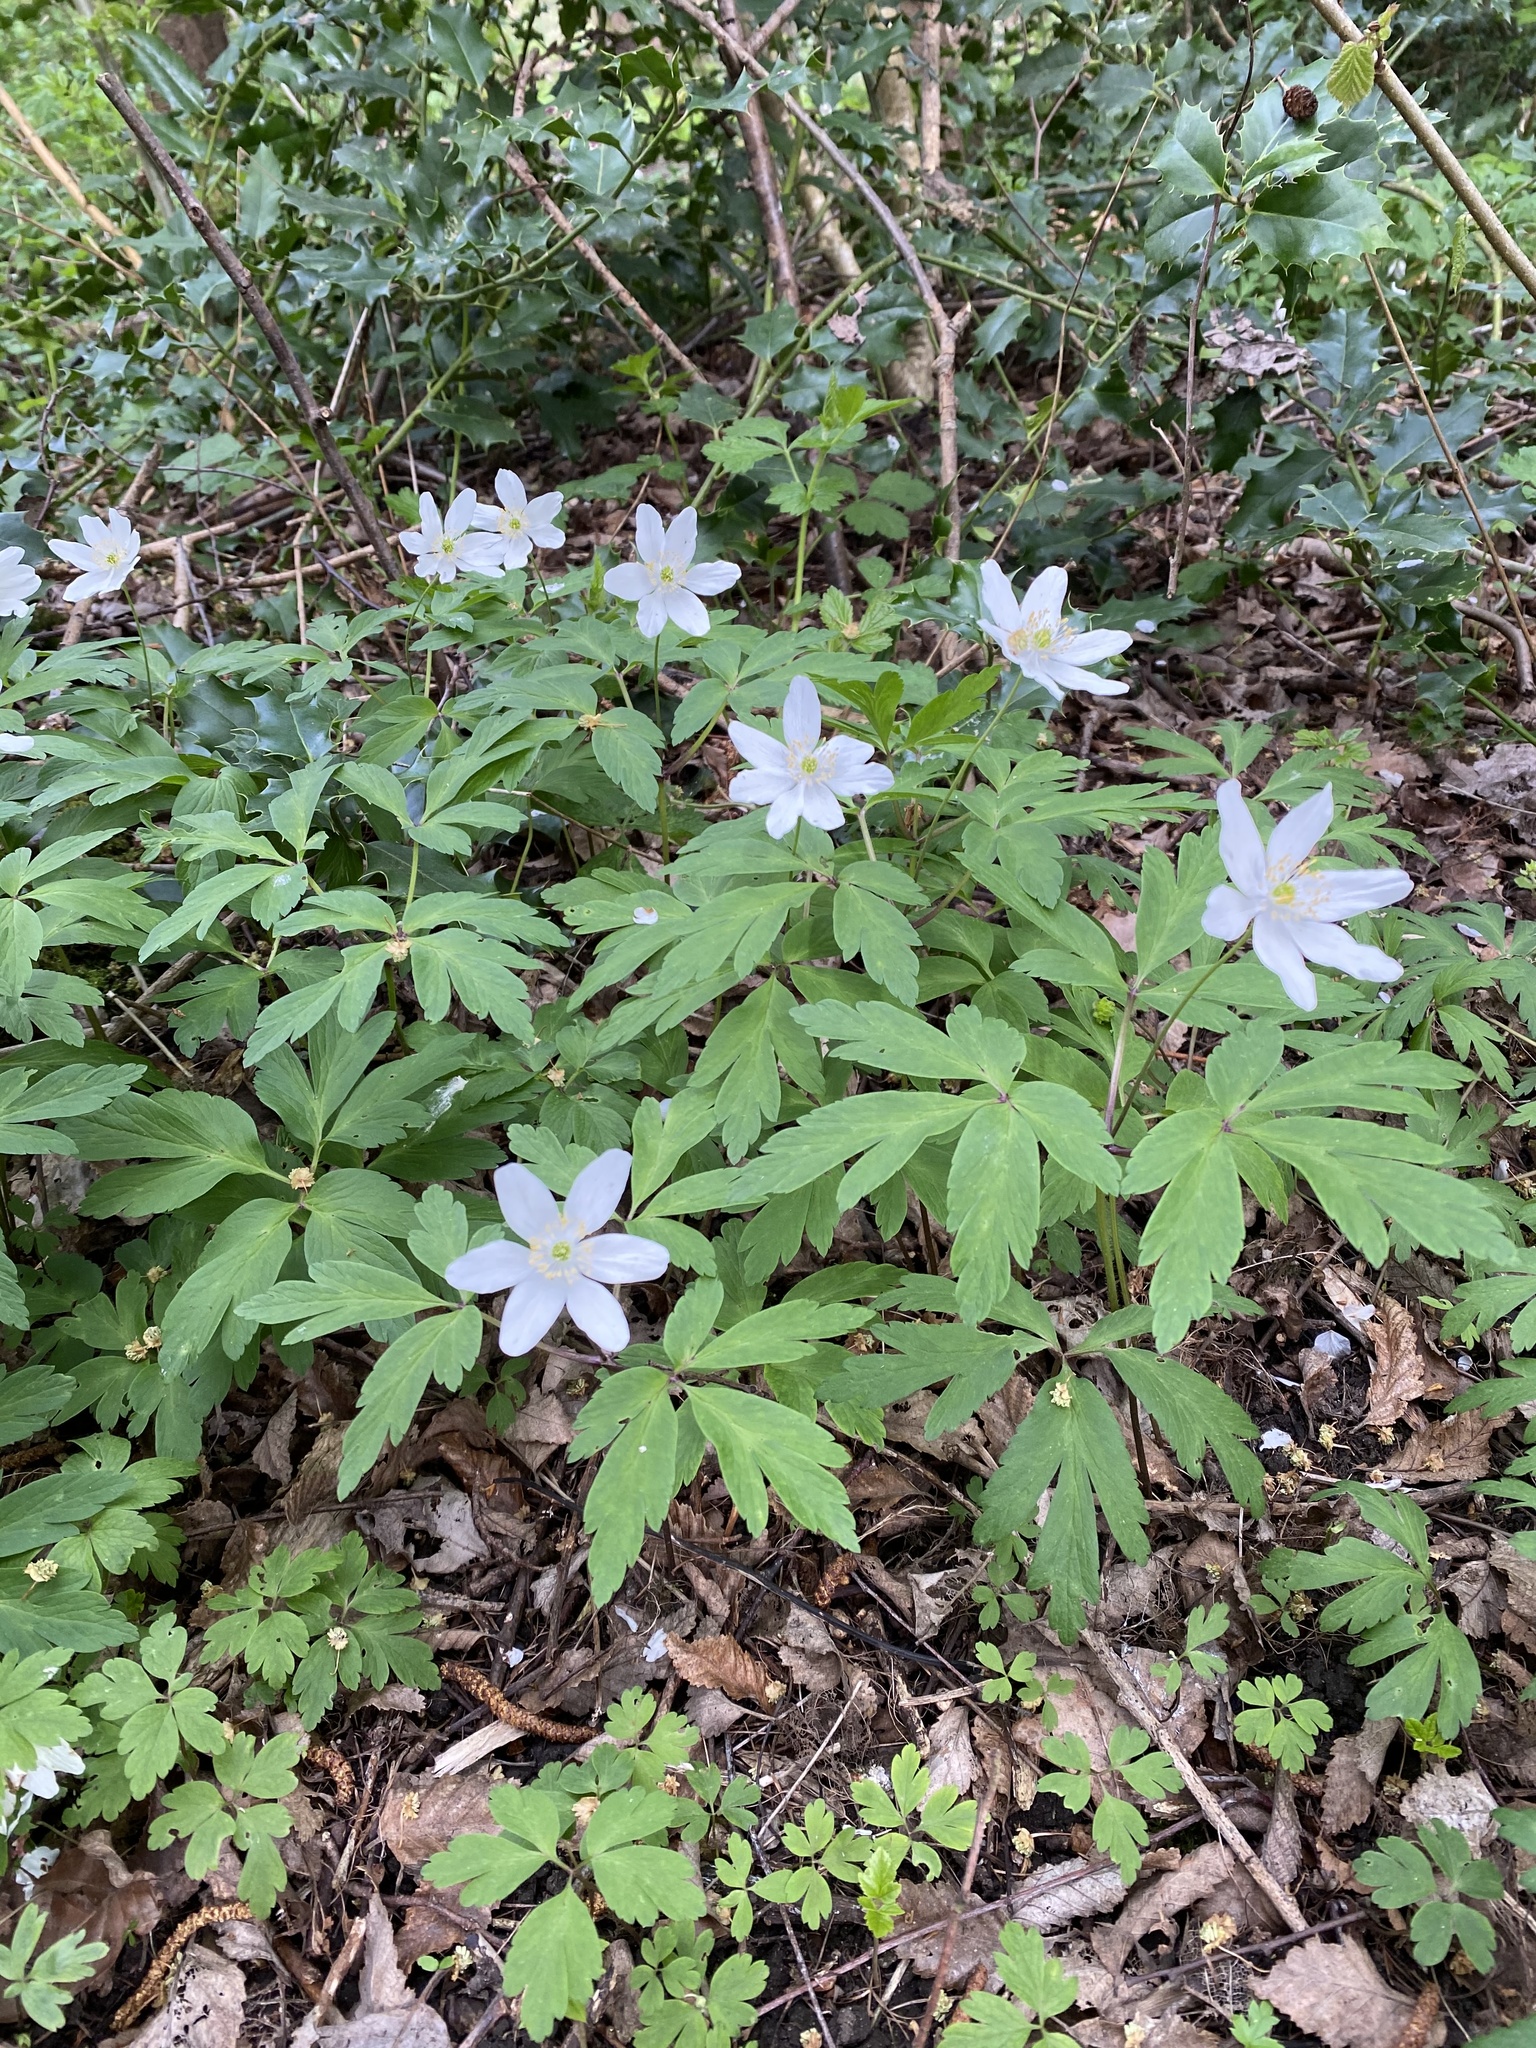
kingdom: Plantae
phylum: Tracheophyta
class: Magnoliopsida
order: Ranunculales
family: Ranunculaceae
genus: Anemone
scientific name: Anemone nemorosa
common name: Wood anemone
